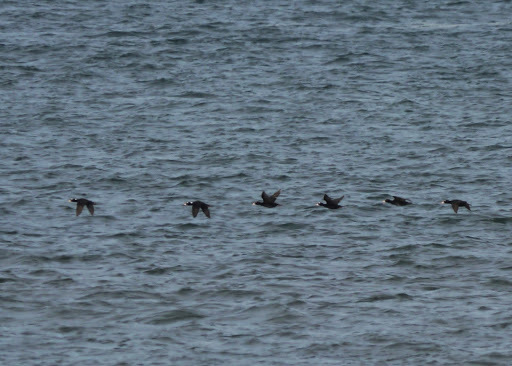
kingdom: Animalia
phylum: Chordata
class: Aves
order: Anseriformes
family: Anatidae
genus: Melanitta
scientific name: Melanitta perspicillata
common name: Surf scoter
